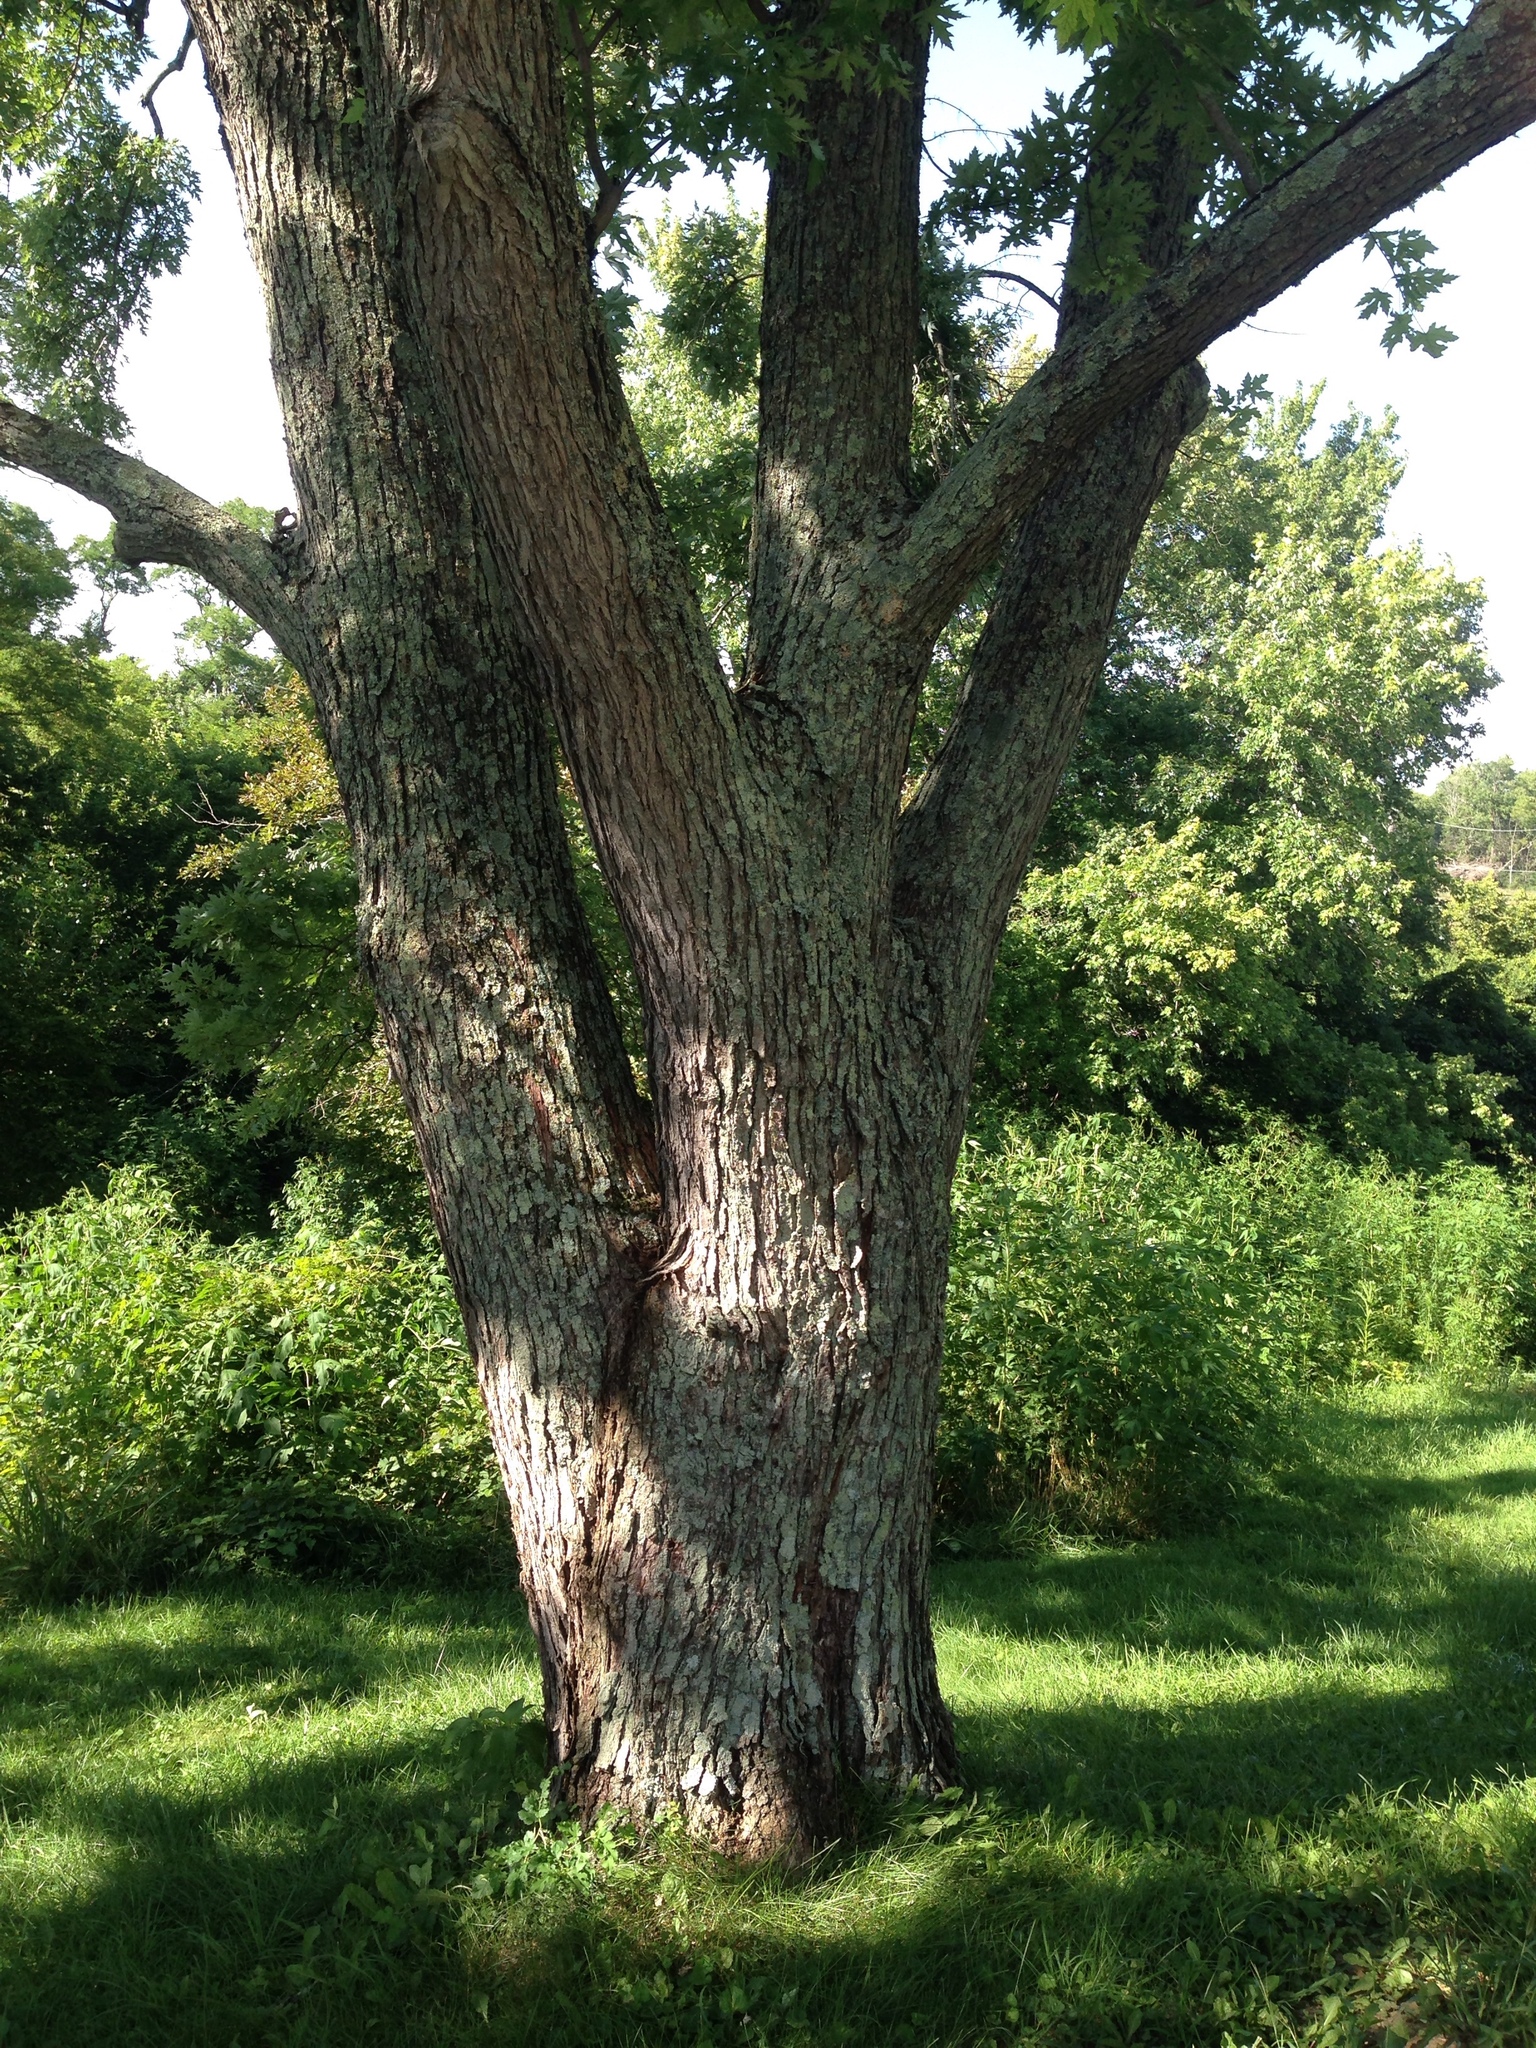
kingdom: Plantae
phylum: Tracheophyta
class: Magnoliopsida
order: Sapindales
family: Sapindaceae
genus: Acer
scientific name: Acer saccharinum
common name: Silver maple
